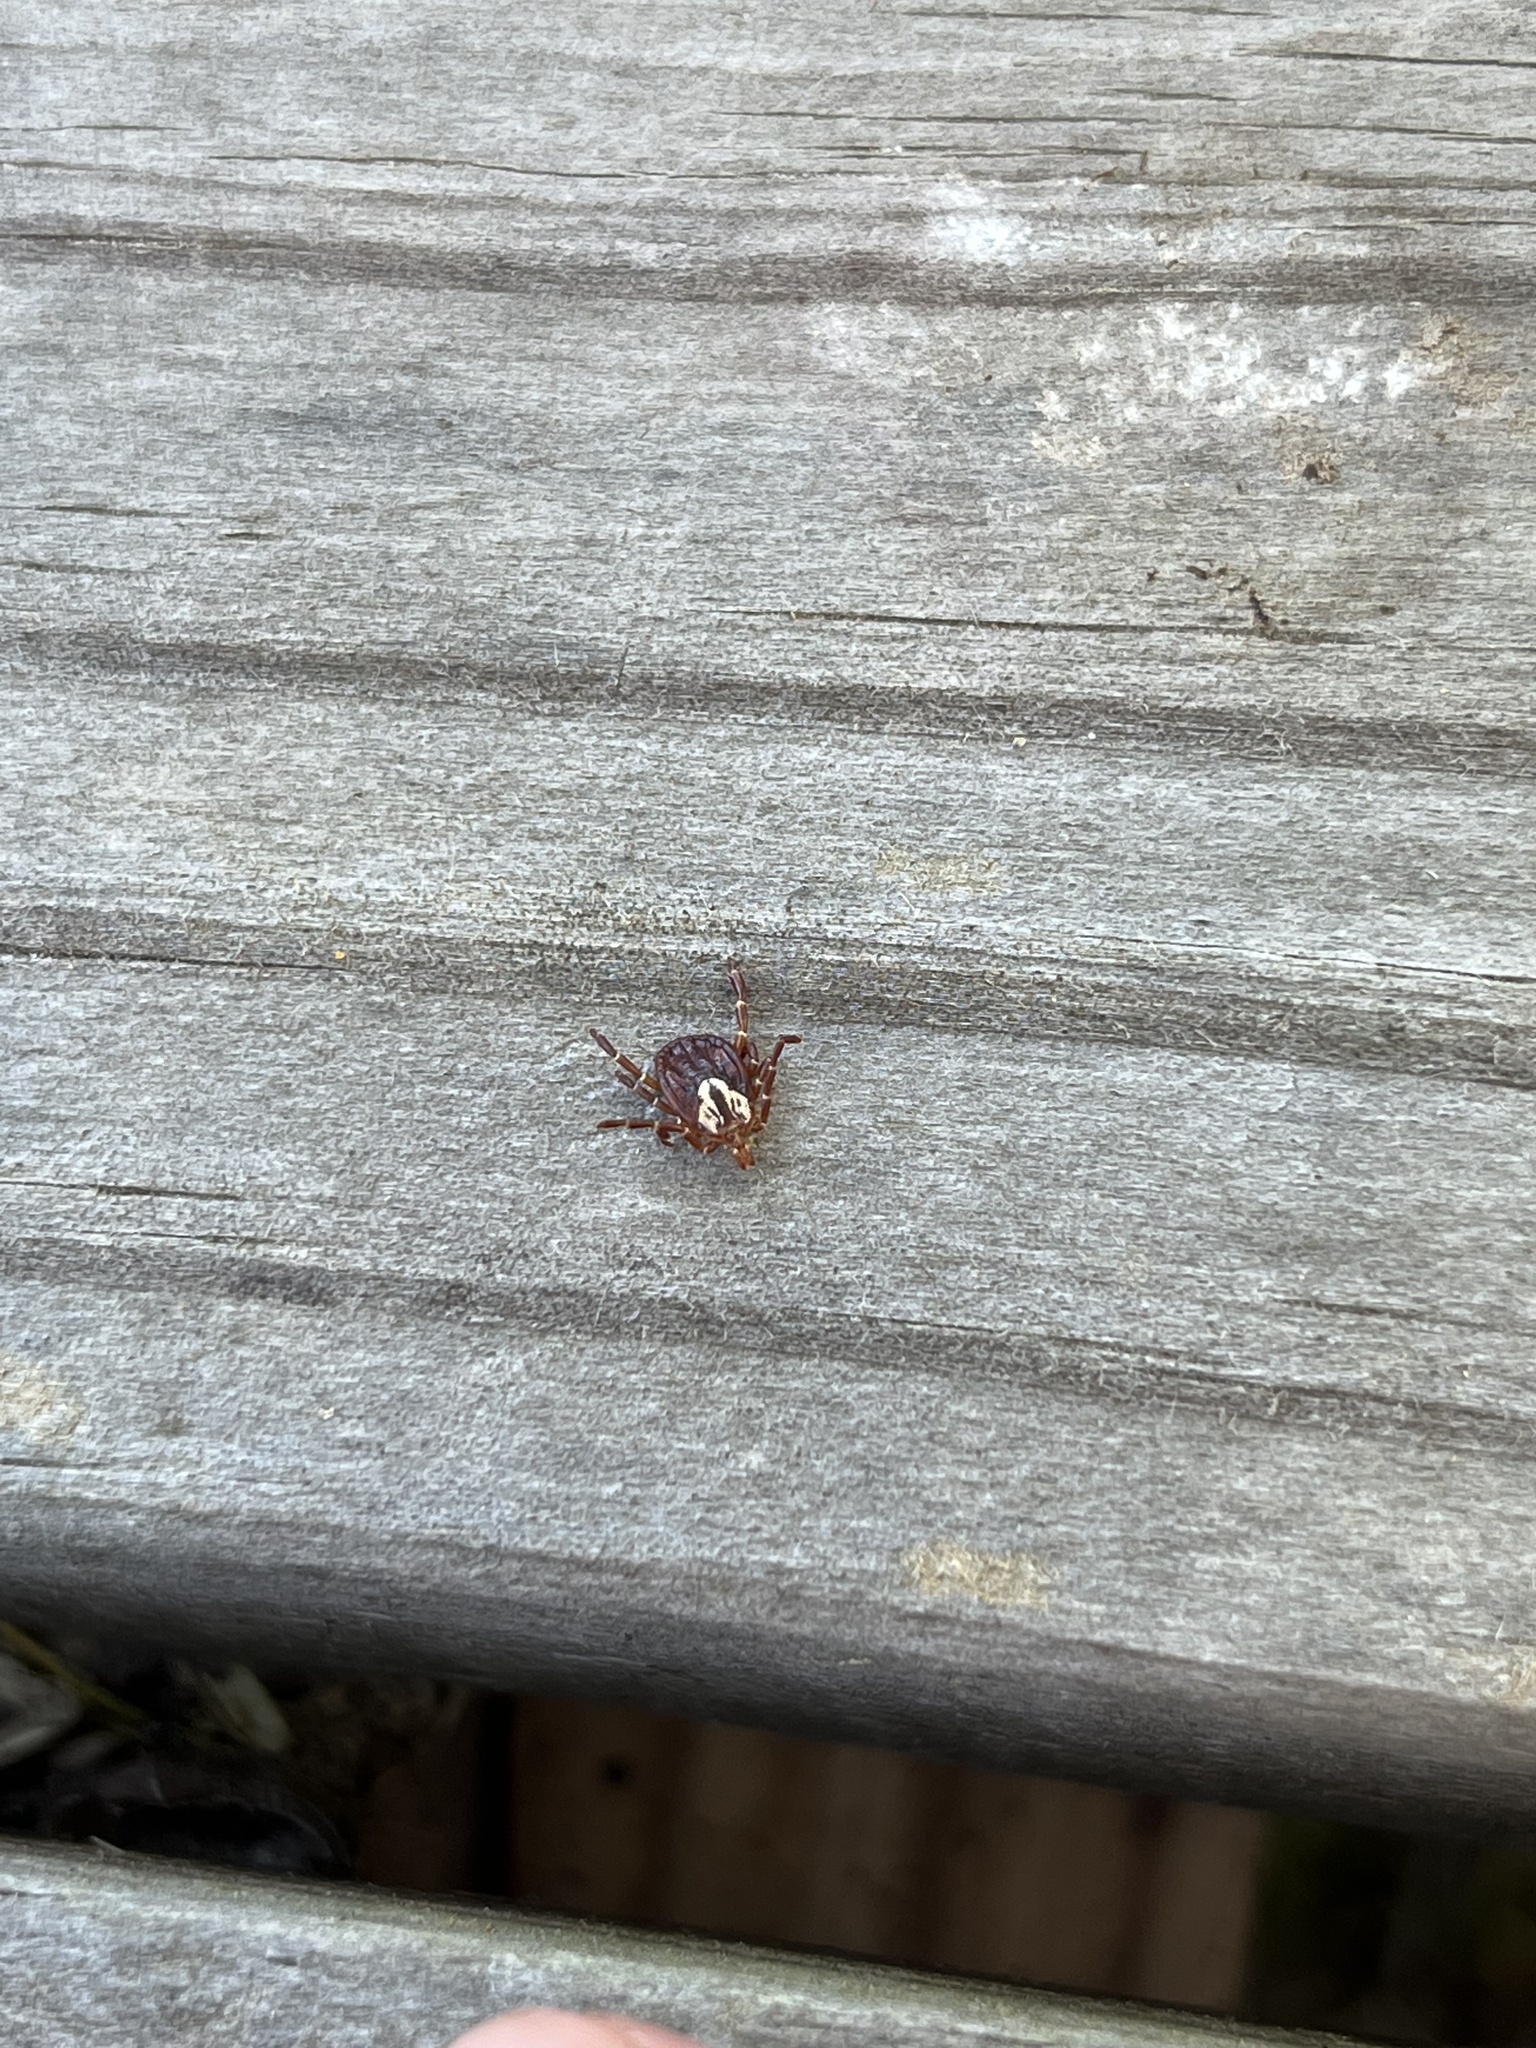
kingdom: Animalia
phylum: Arthropoda
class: Arachnida
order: Ixodida
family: Ixodidae
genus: Amblyomma
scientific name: Amblyomma maculatum
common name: Gulf coast tick
